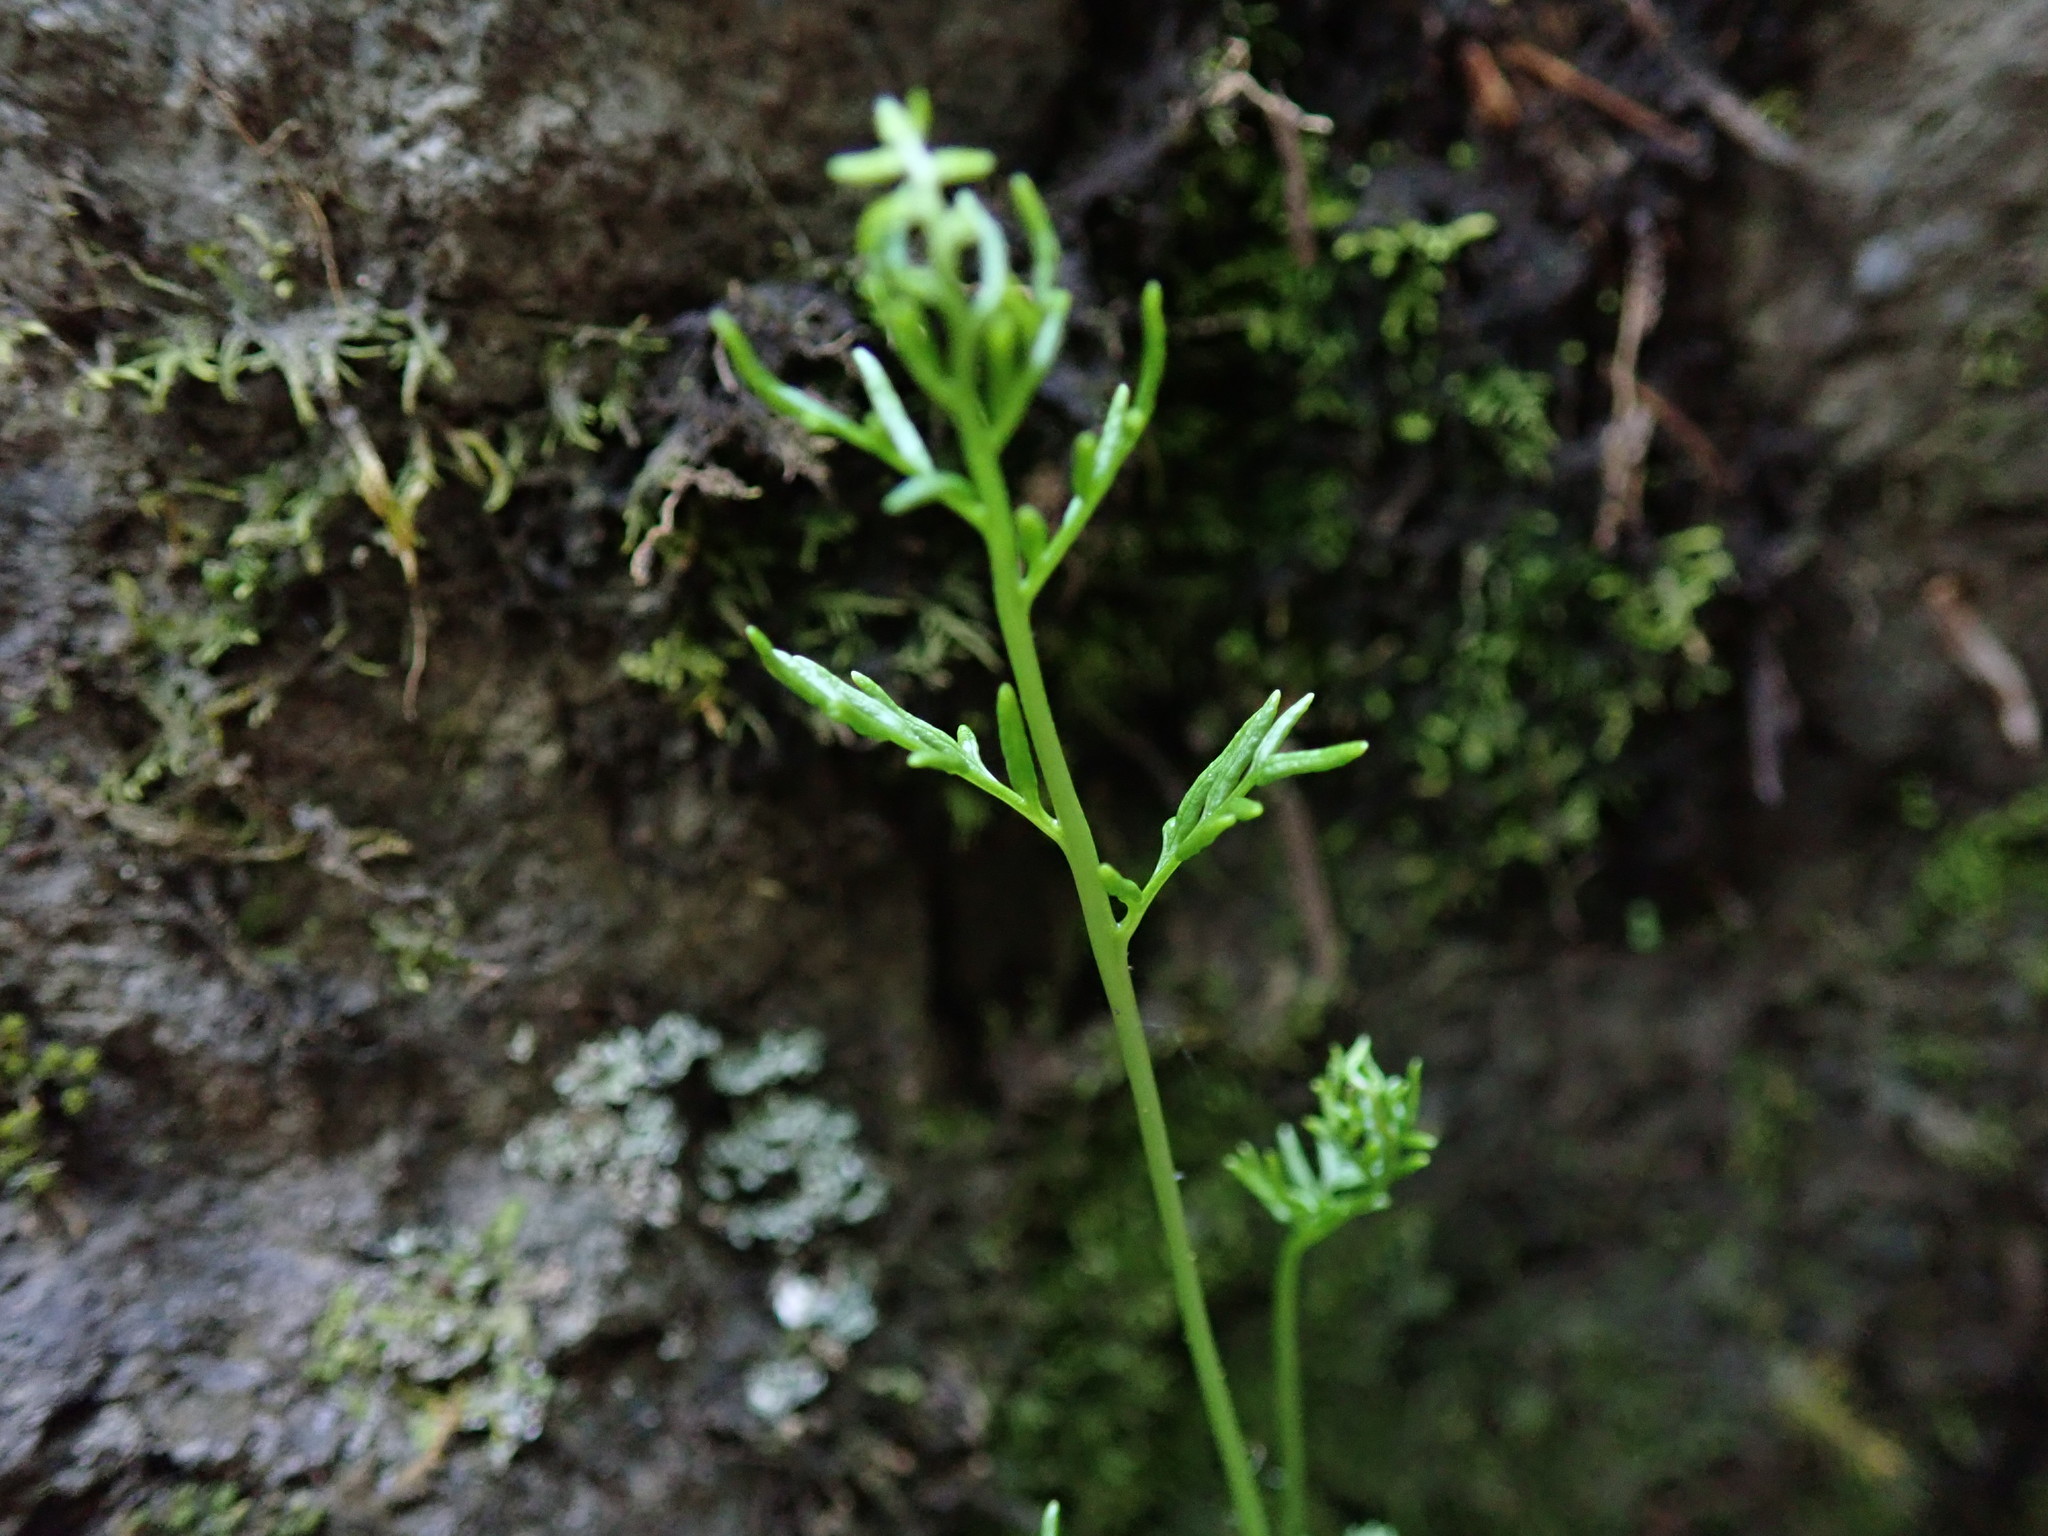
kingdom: Plantae
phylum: Tracheophyta
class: Polypodiopsida
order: Polypodiales
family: Pteridaceae
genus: Cryptogramma
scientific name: Cryptogramma acrostichoides
